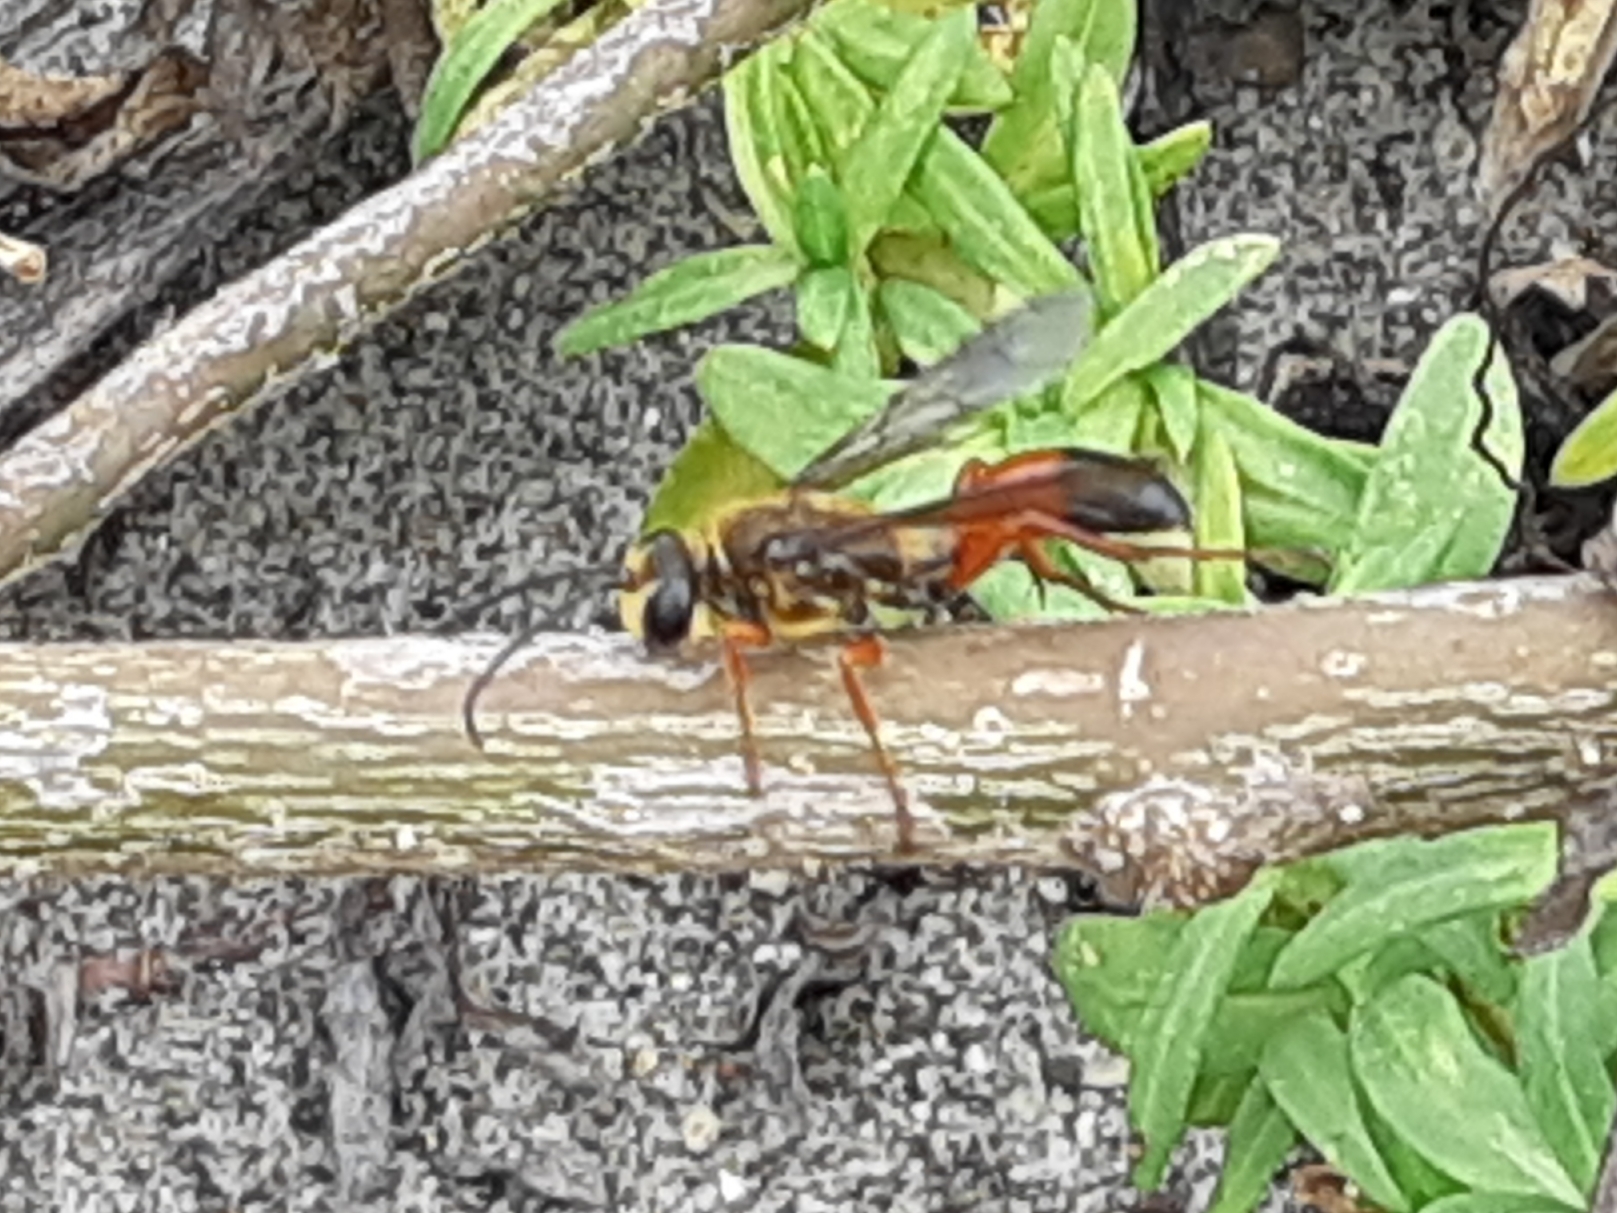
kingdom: Animalia
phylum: Arthropoda
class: Insecta
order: Hymenoptera
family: Sphecidae
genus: Sphex
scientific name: Sphex ichneumoneus
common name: Great golden digger wasp
